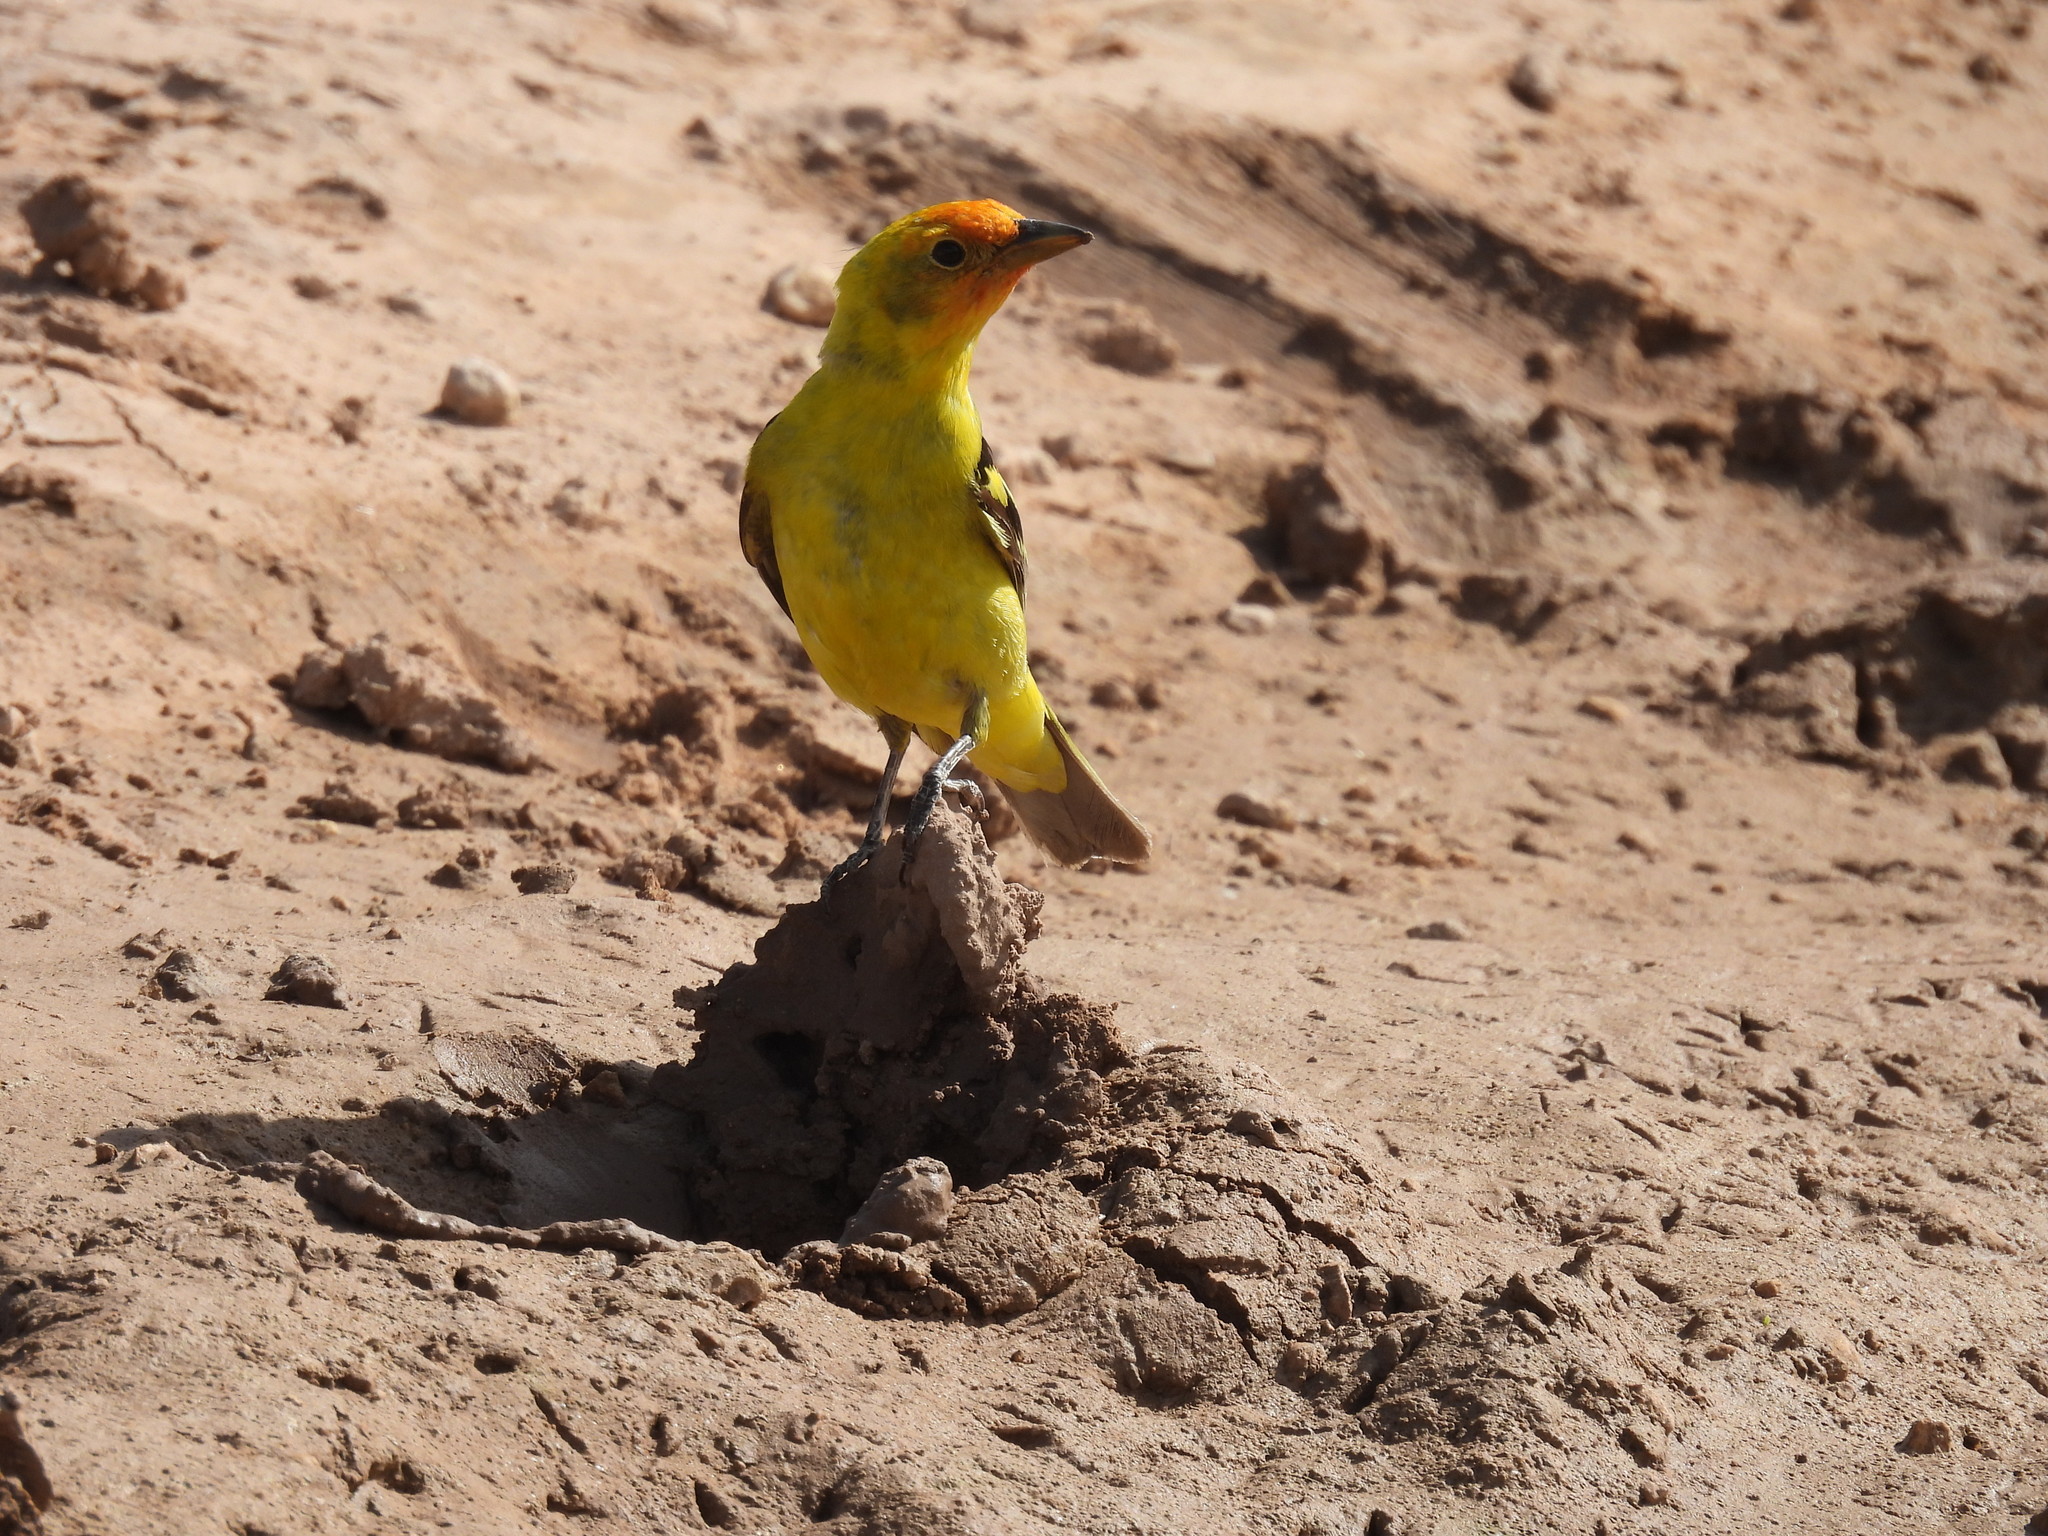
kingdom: Animalia
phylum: Chordata
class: Aves
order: Passeriformes
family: Cardinalidae
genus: Piranga
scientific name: Piranga ludoviciana
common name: Western tanager
